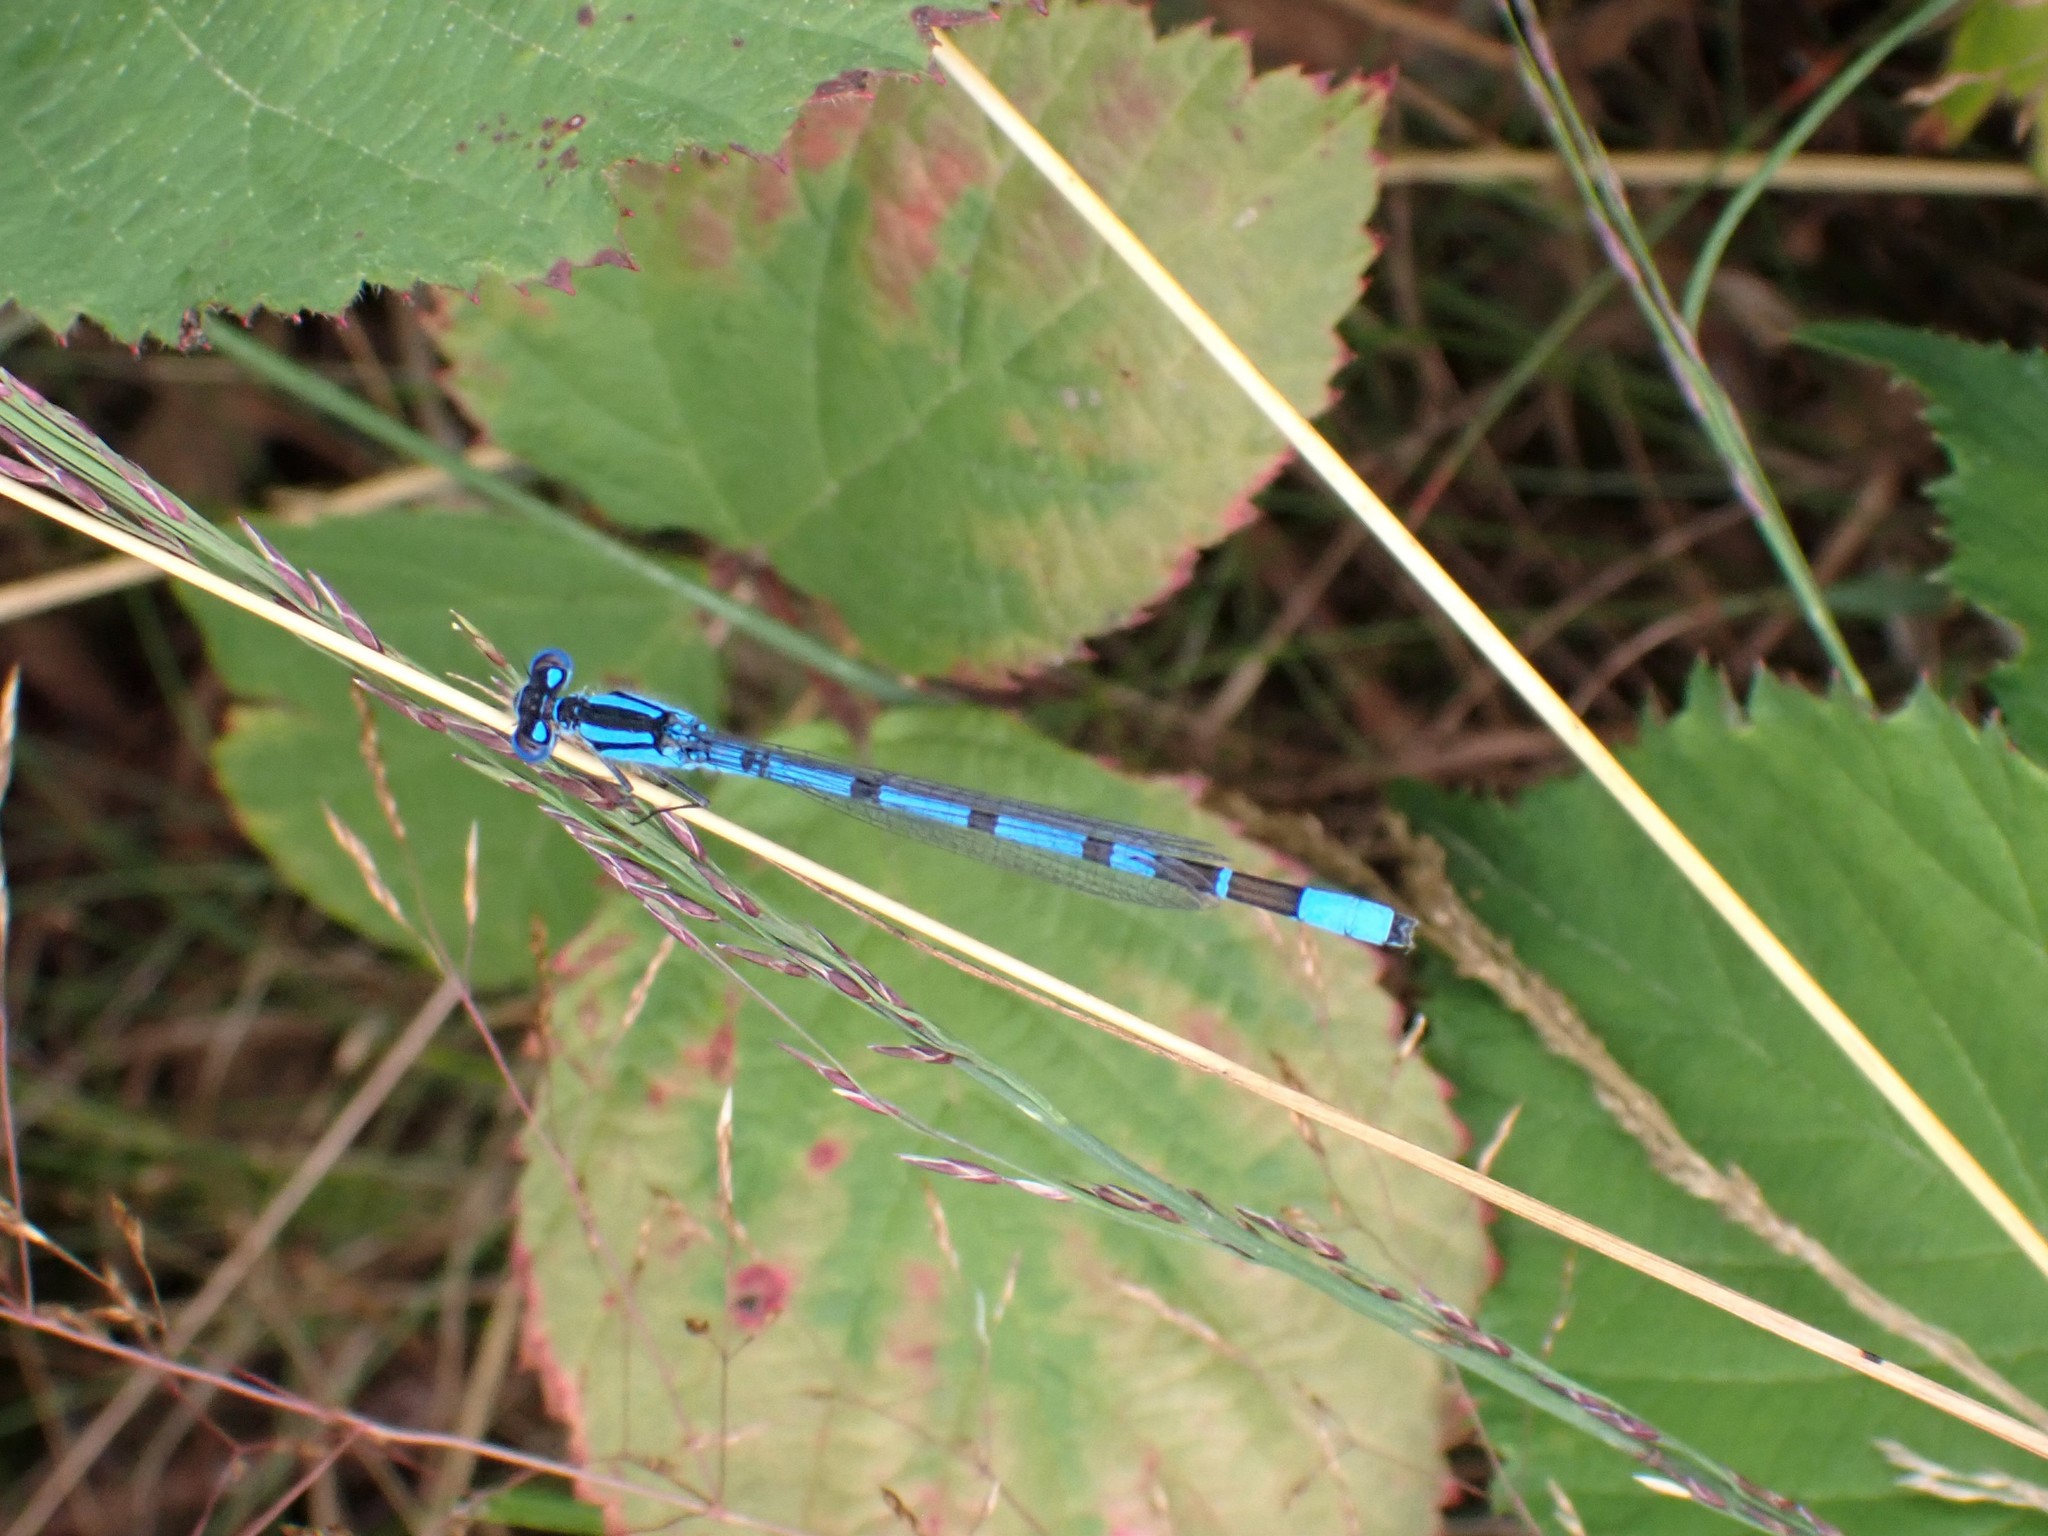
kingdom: Animalia
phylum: Arthropoda
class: Insecta
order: Odonata
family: Coenagrionidae
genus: Enallagma
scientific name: Enallagma cyathigerum
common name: Common blue damselfly
